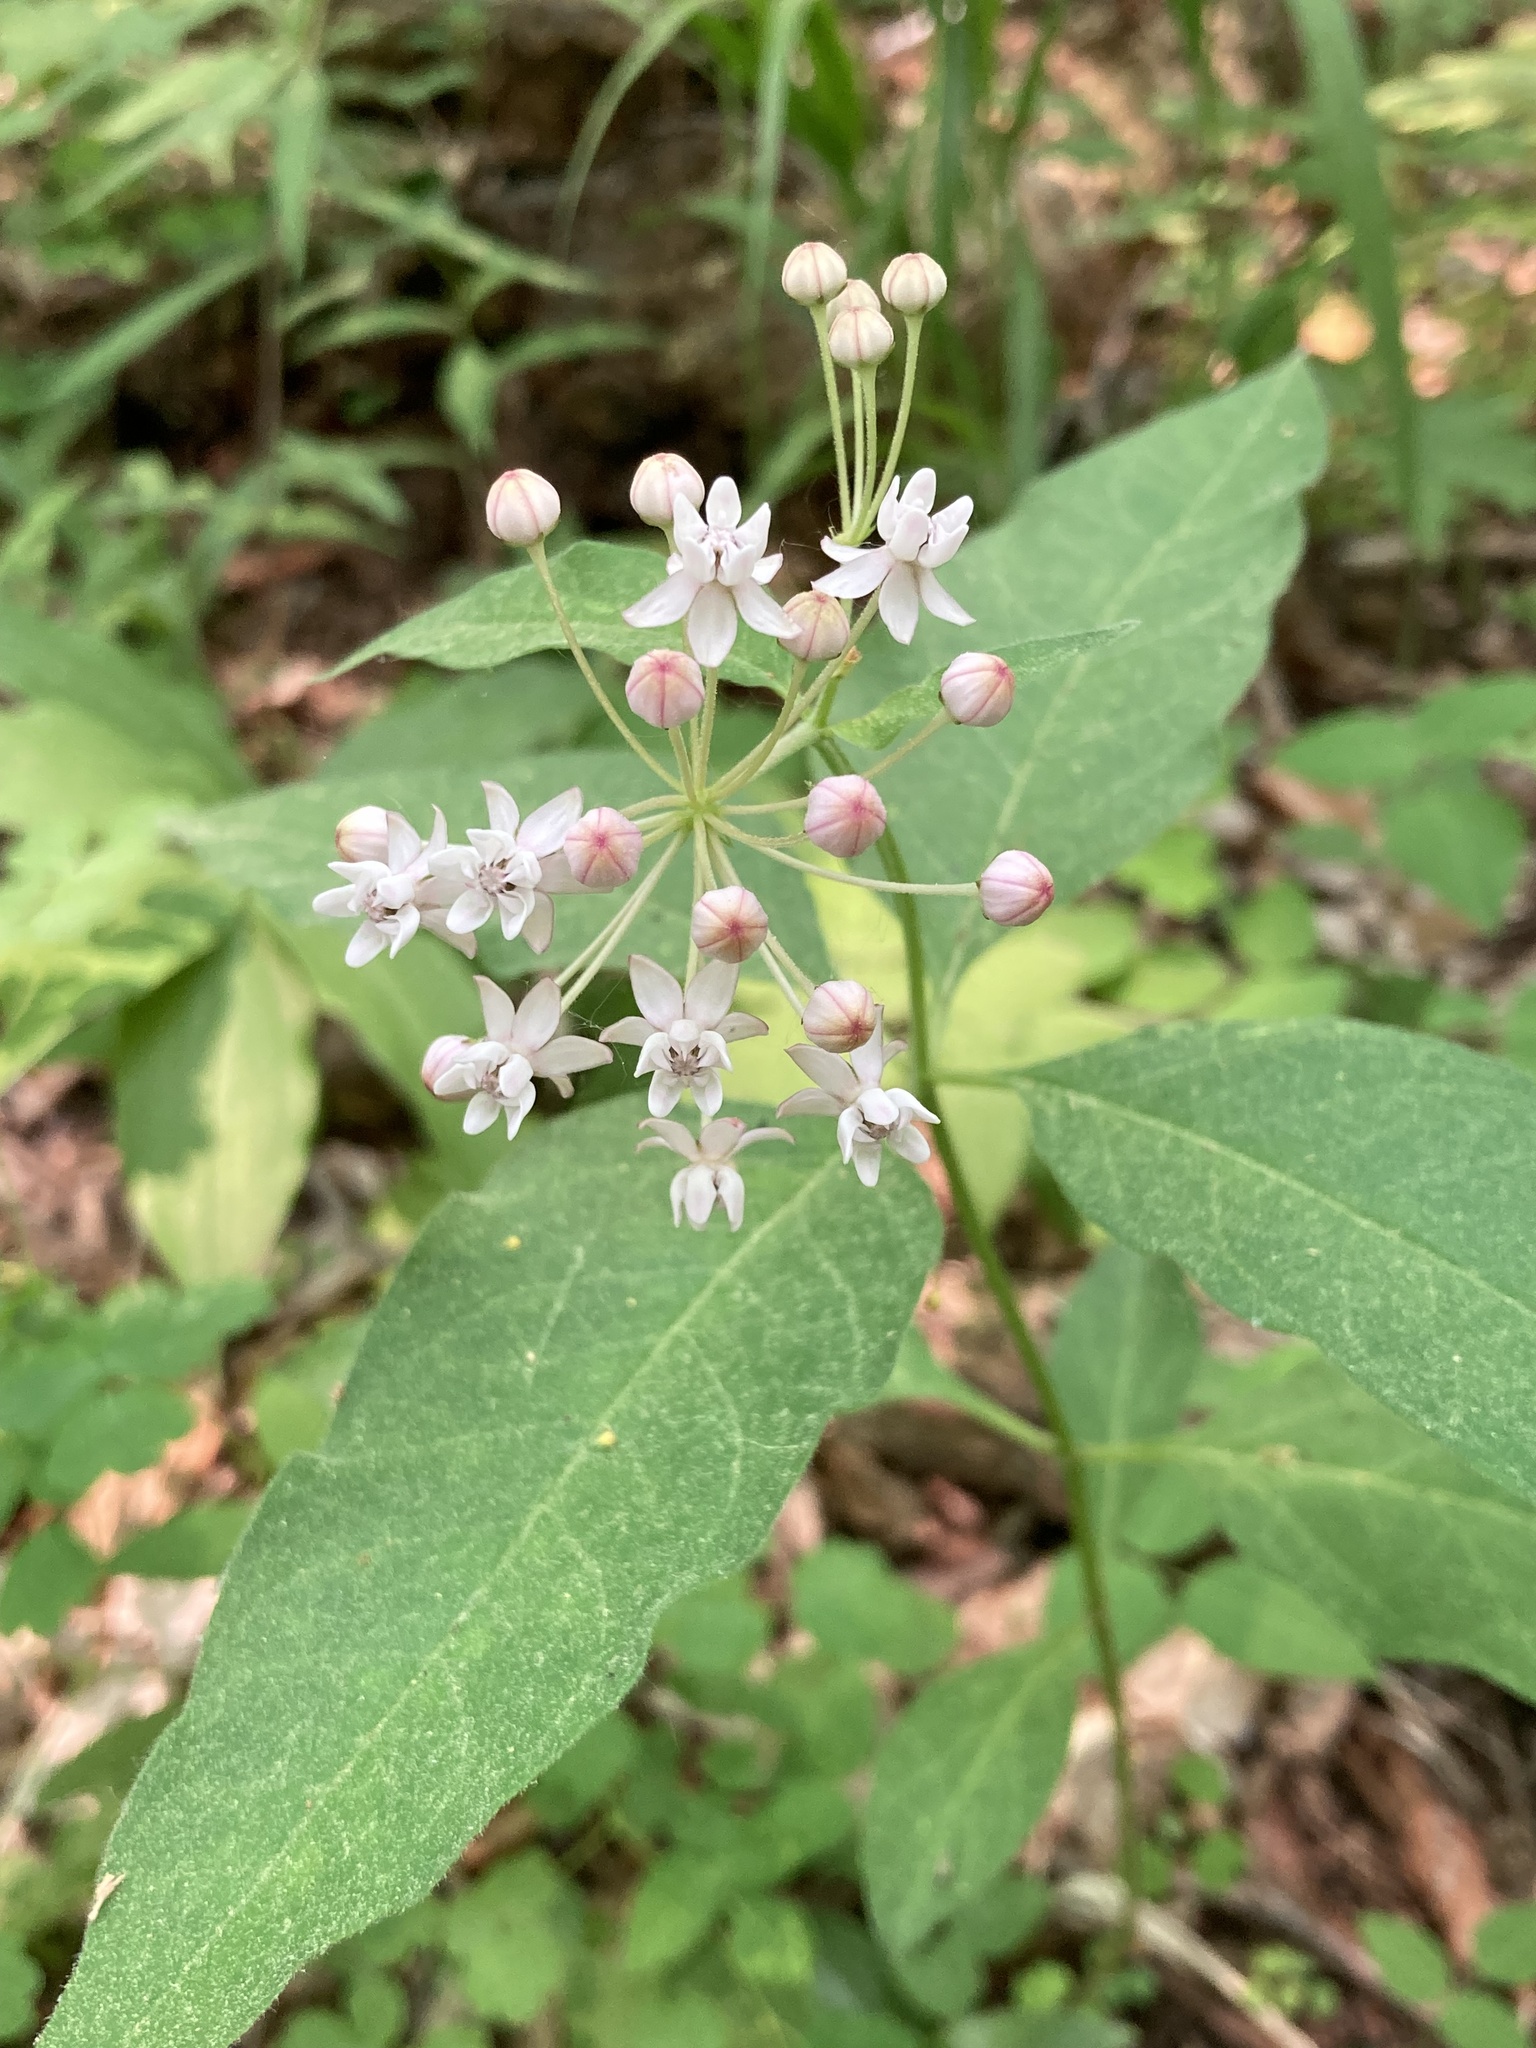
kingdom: Plantae
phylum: Tracheophyta
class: Magnoliopsida
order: Gentianales
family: Apocynaceae
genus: Asclepias
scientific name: Asclepias quadrifolia
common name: Whorled milkweed
